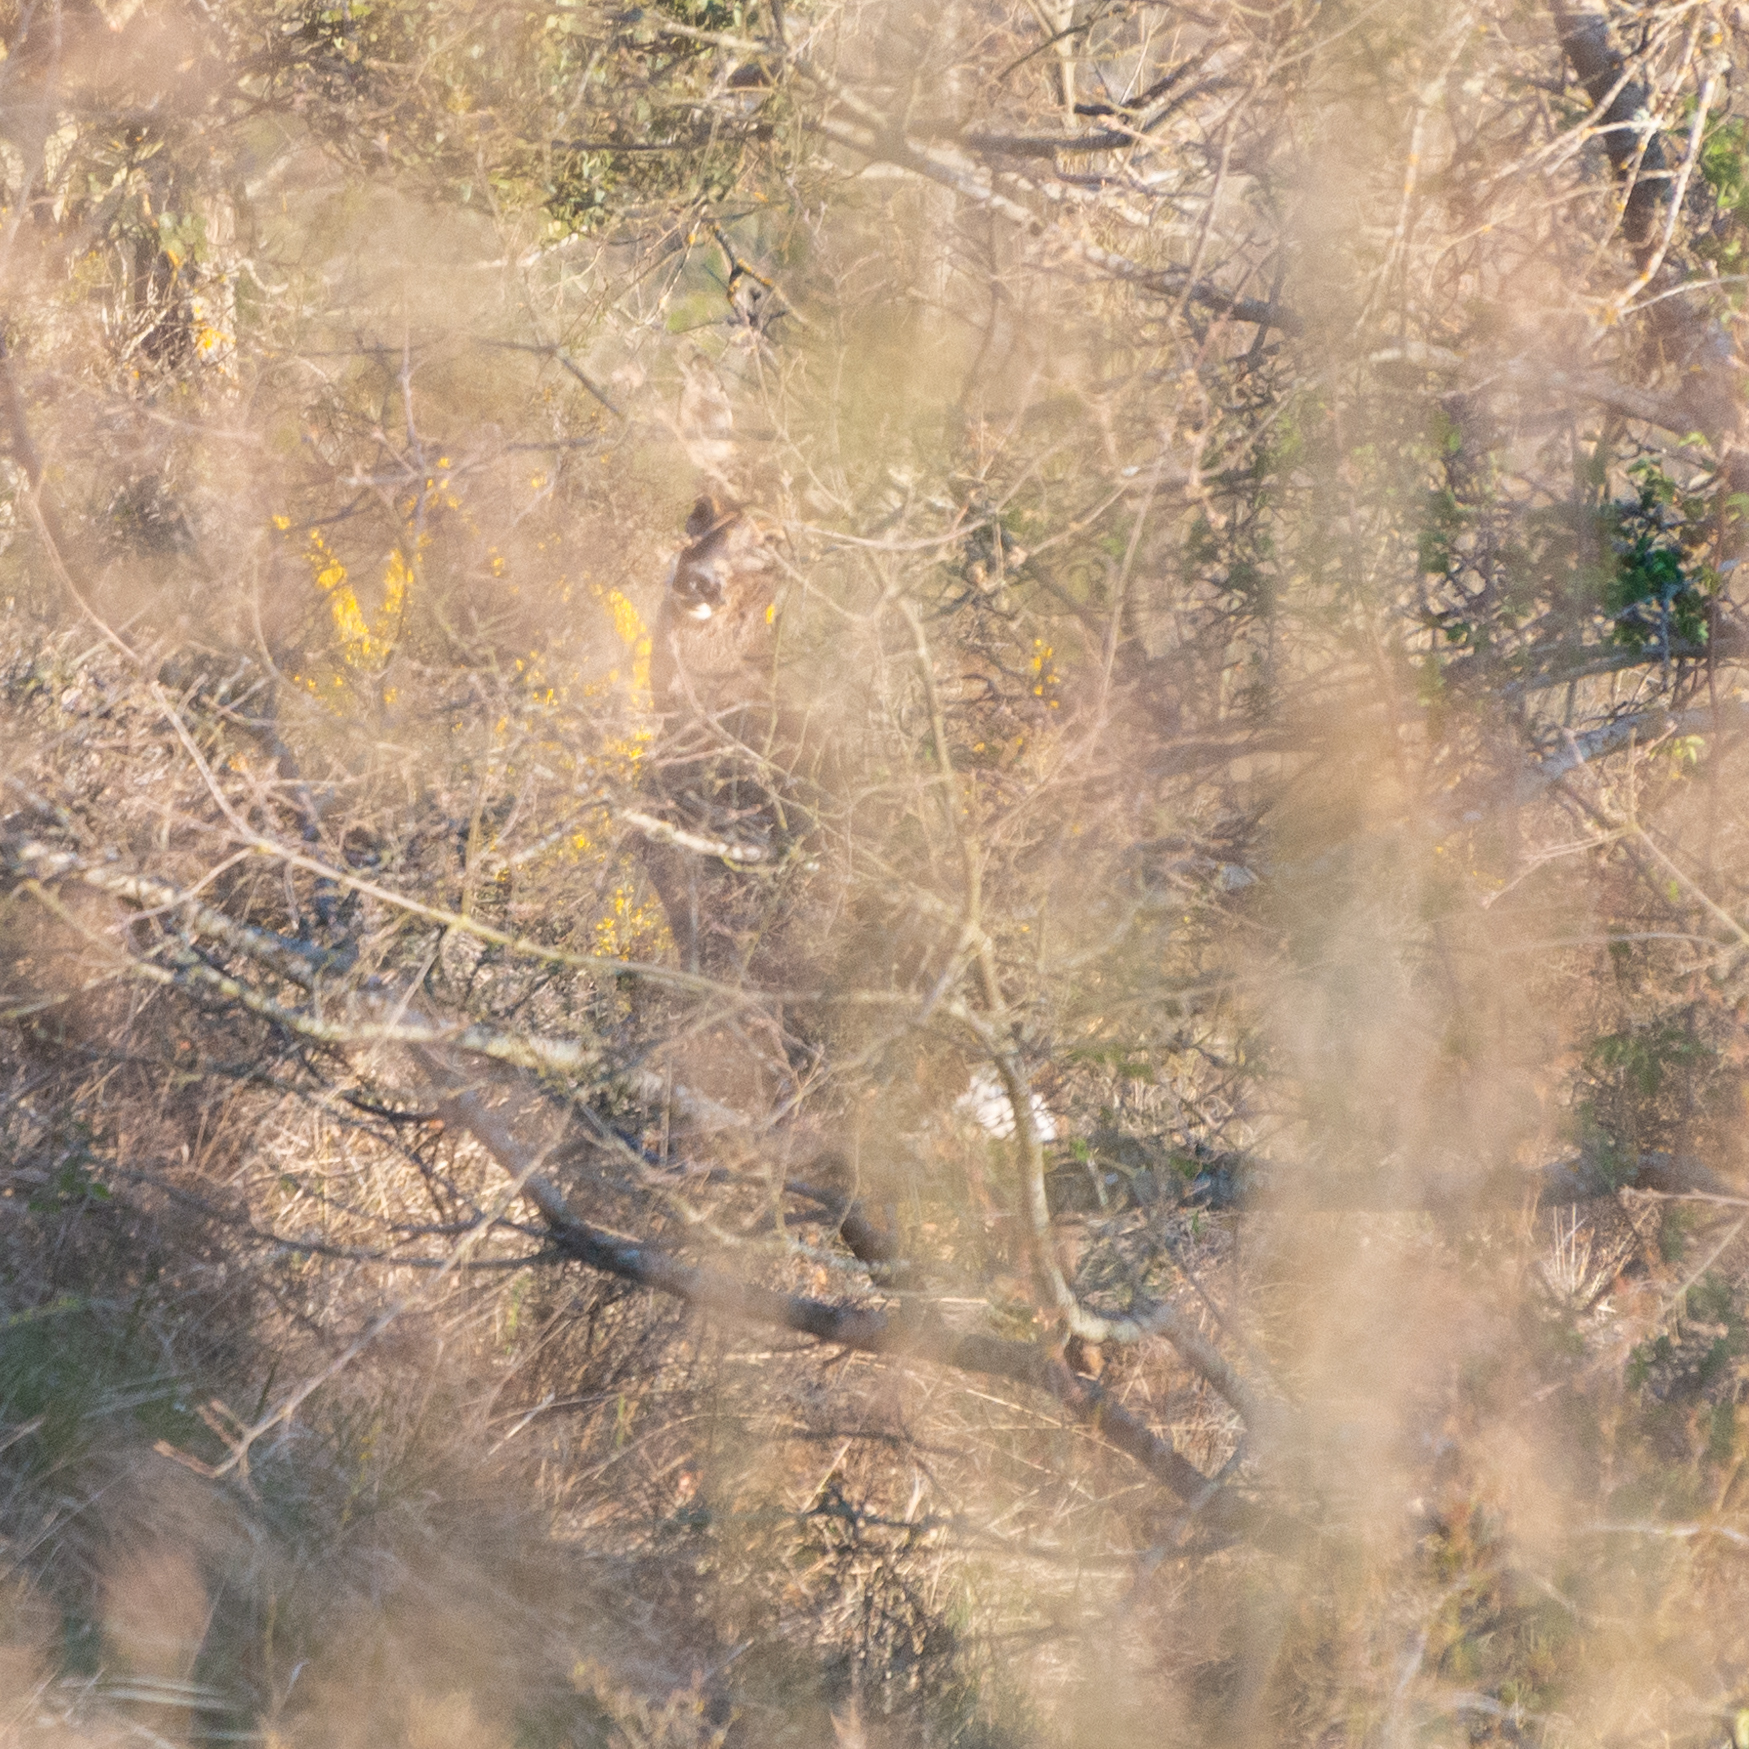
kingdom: Animalia
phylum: Chordata
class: Mammalia
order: Artiodactyla
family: Cervidae
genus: Capreolus
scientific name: Capreolus capreolus
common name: Western roe deer
